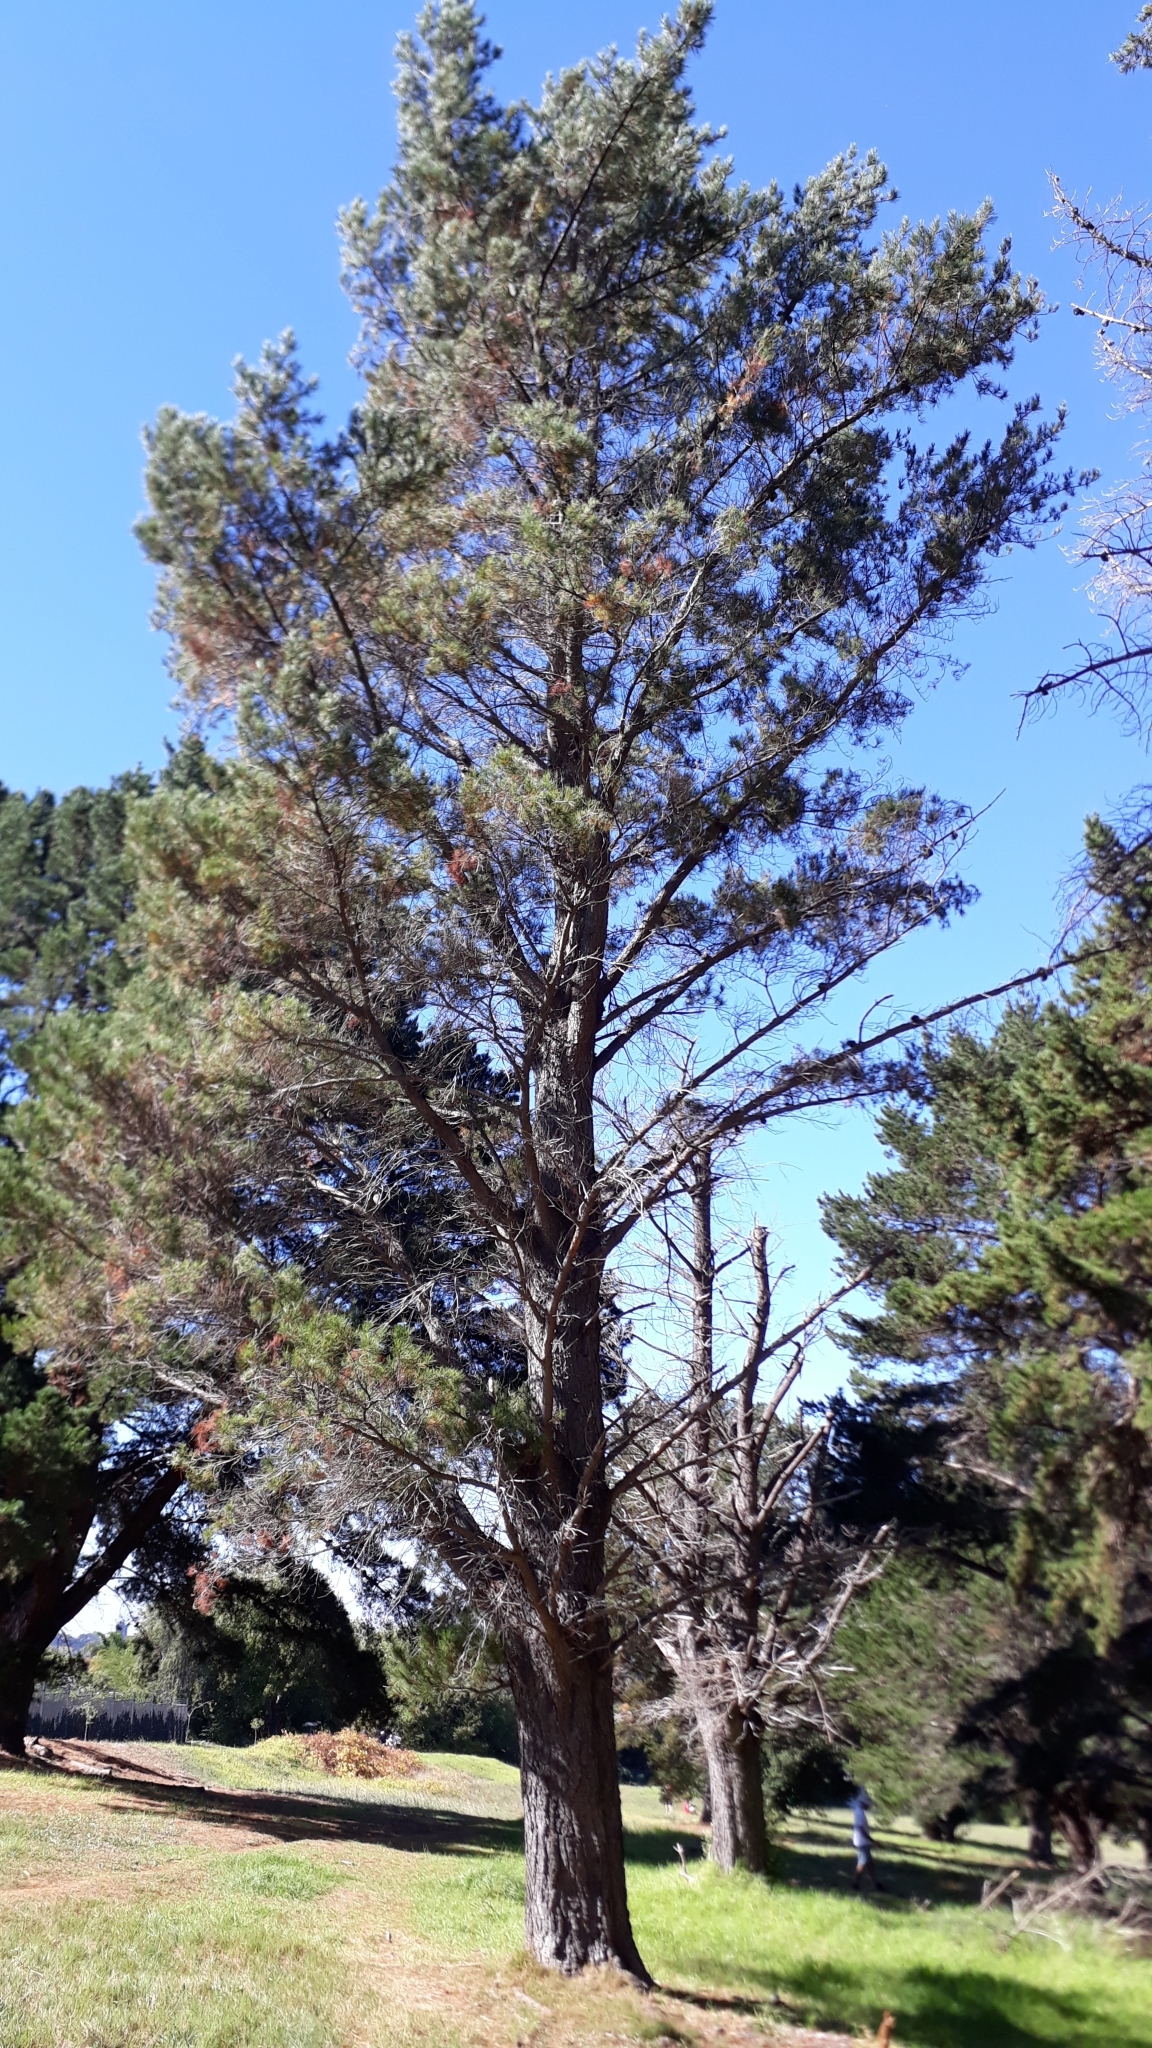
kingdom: Plantae
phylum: Tracheophyta
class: Pinopsida
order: Pinales
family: Pinaceae
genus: Pinus
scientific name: Pinus radiata
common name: Monterey pine
